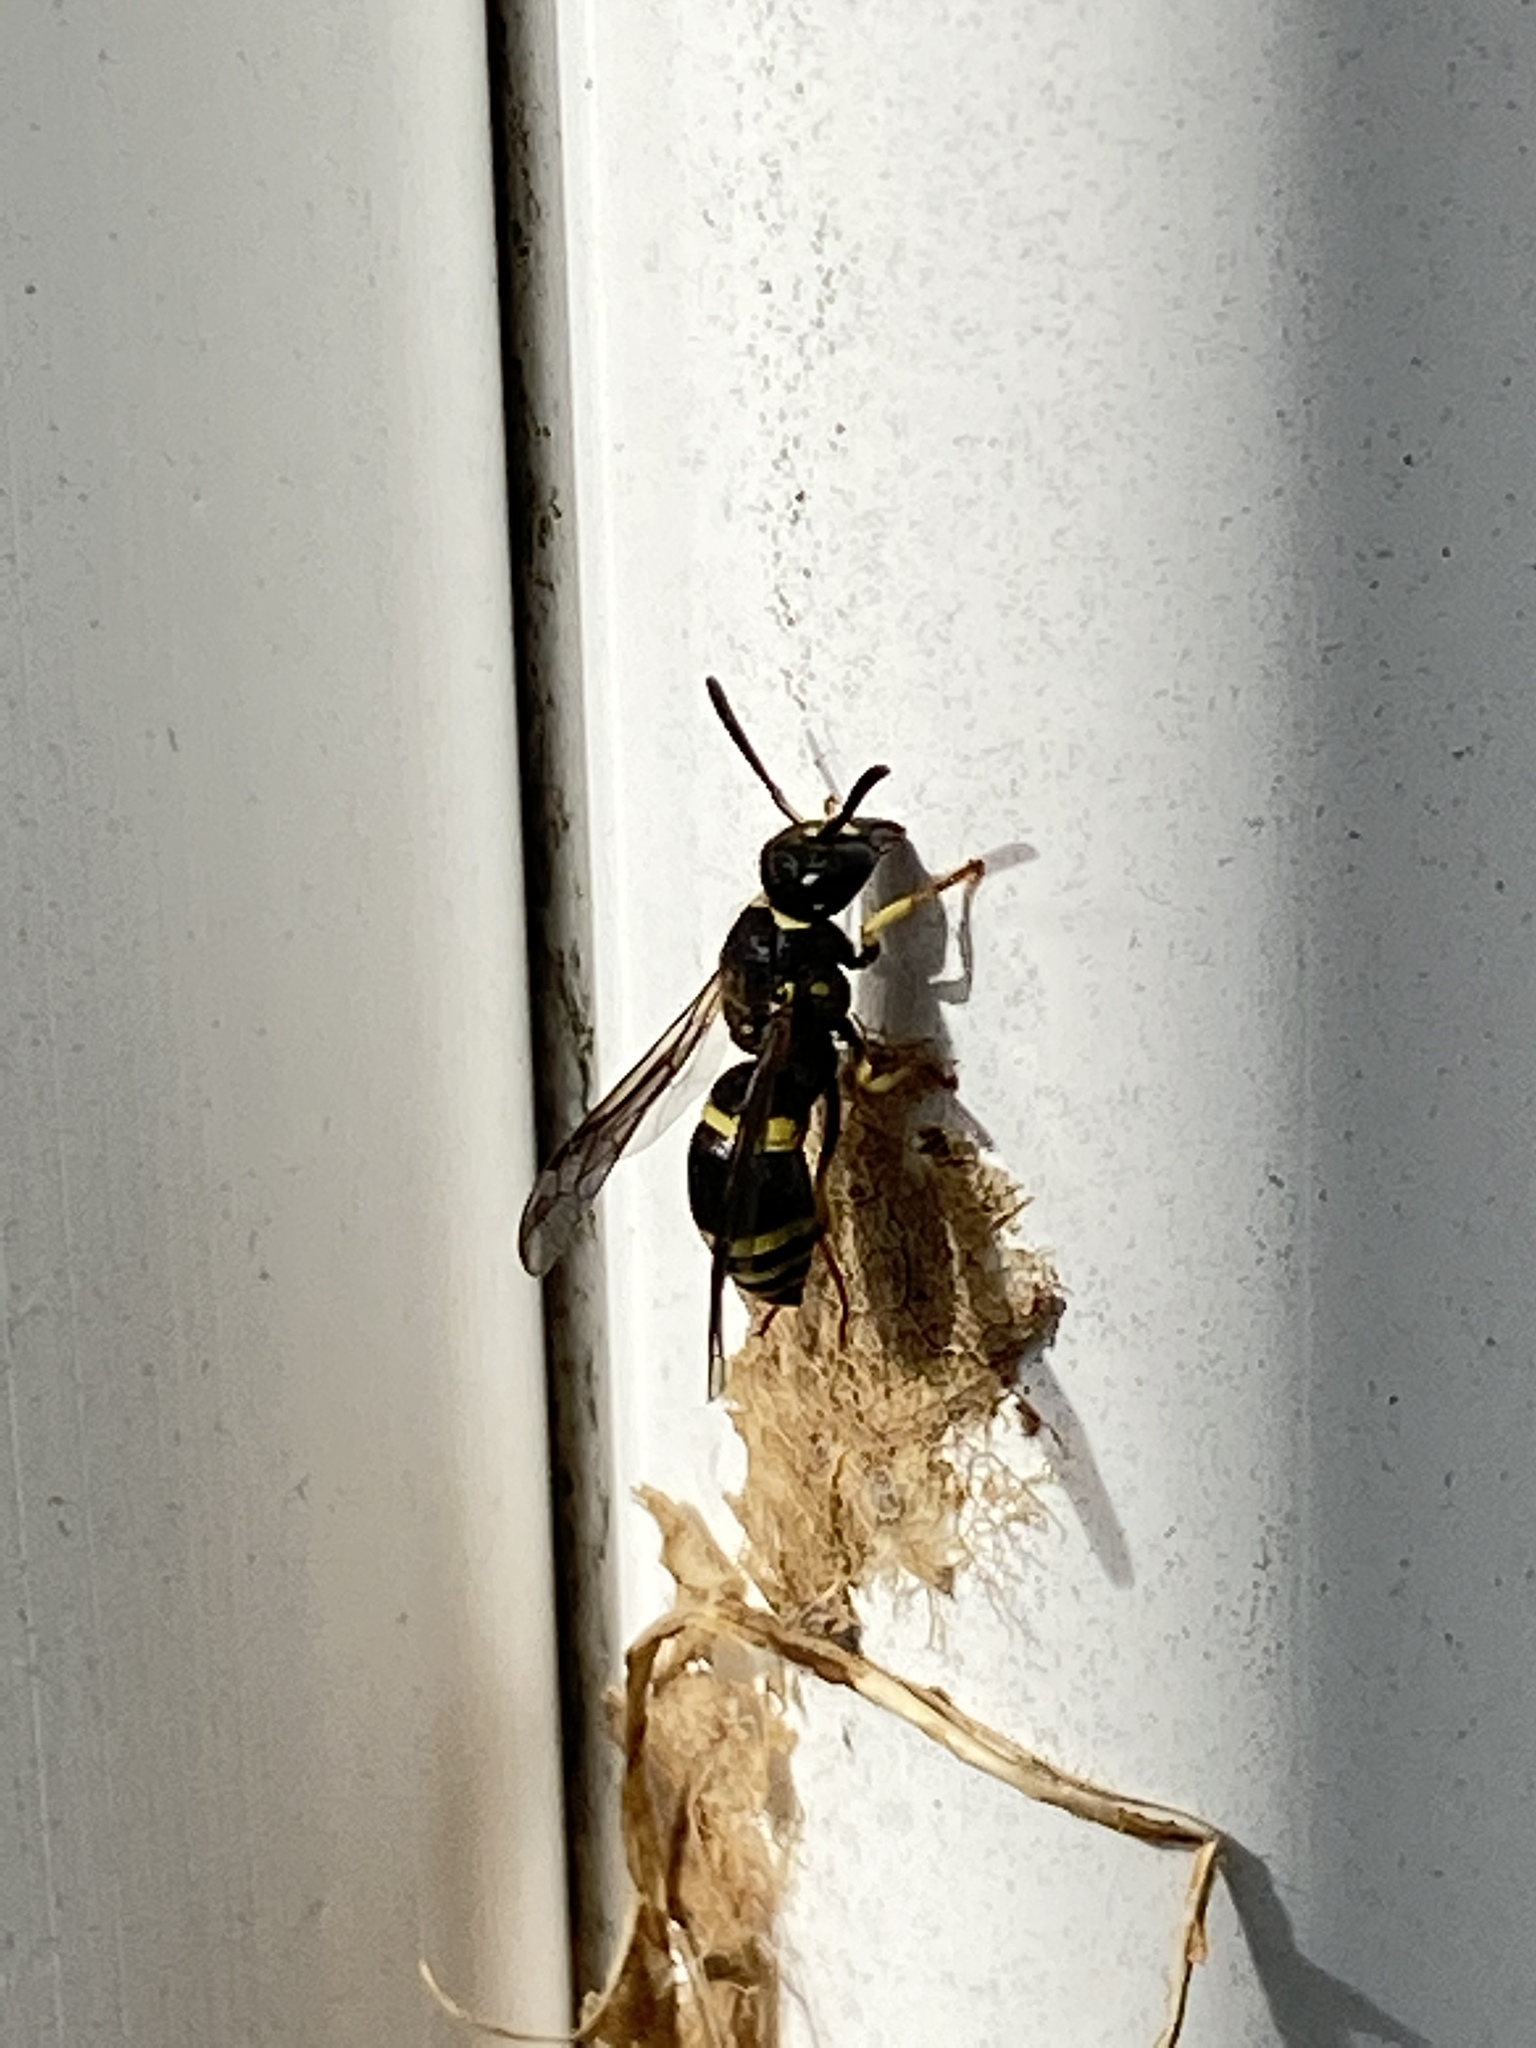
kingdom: Animalia
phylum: Arthropoda
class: Insecta
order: Hymenoptera
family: Vespidae
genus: Ancistrocerus
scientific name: Ancistrocerus adiabatus
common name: Bramble mason wasp
